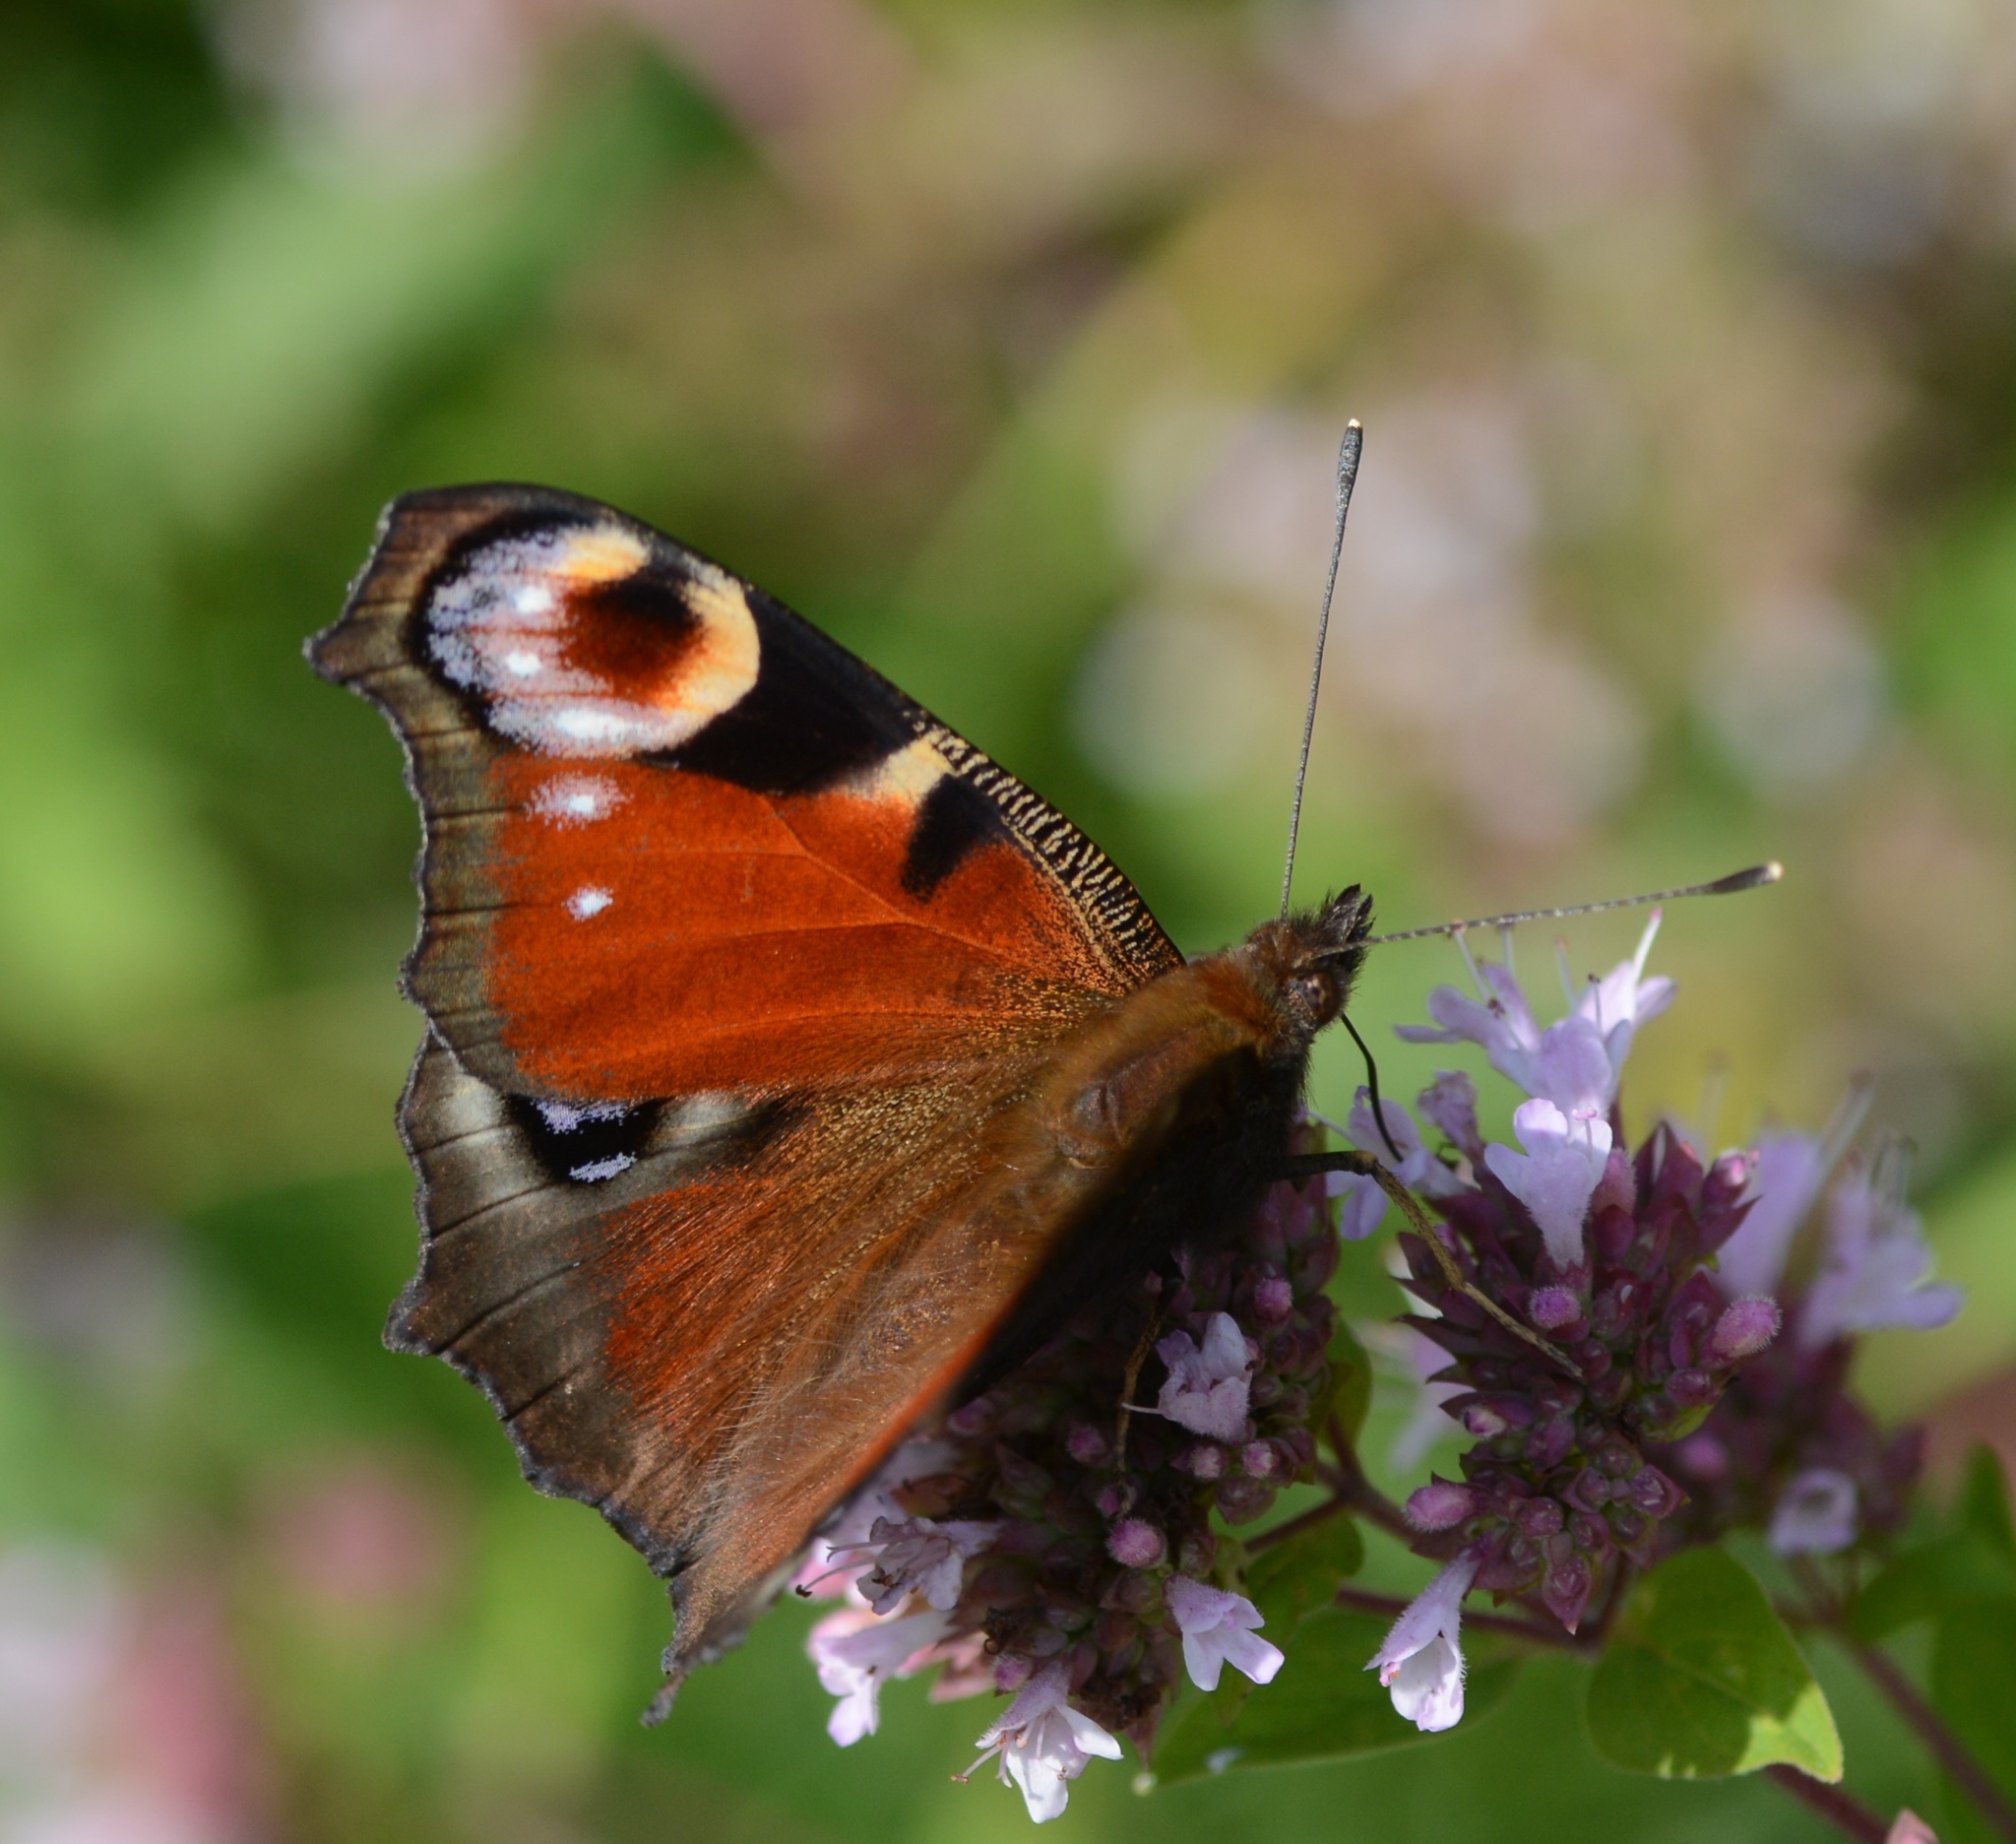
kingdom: Animalia
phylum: Arthropoda
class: Insecta
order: Lepidoptera
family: Nymphalidae
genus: Aglais
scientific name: Aglais io
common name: Peacock
